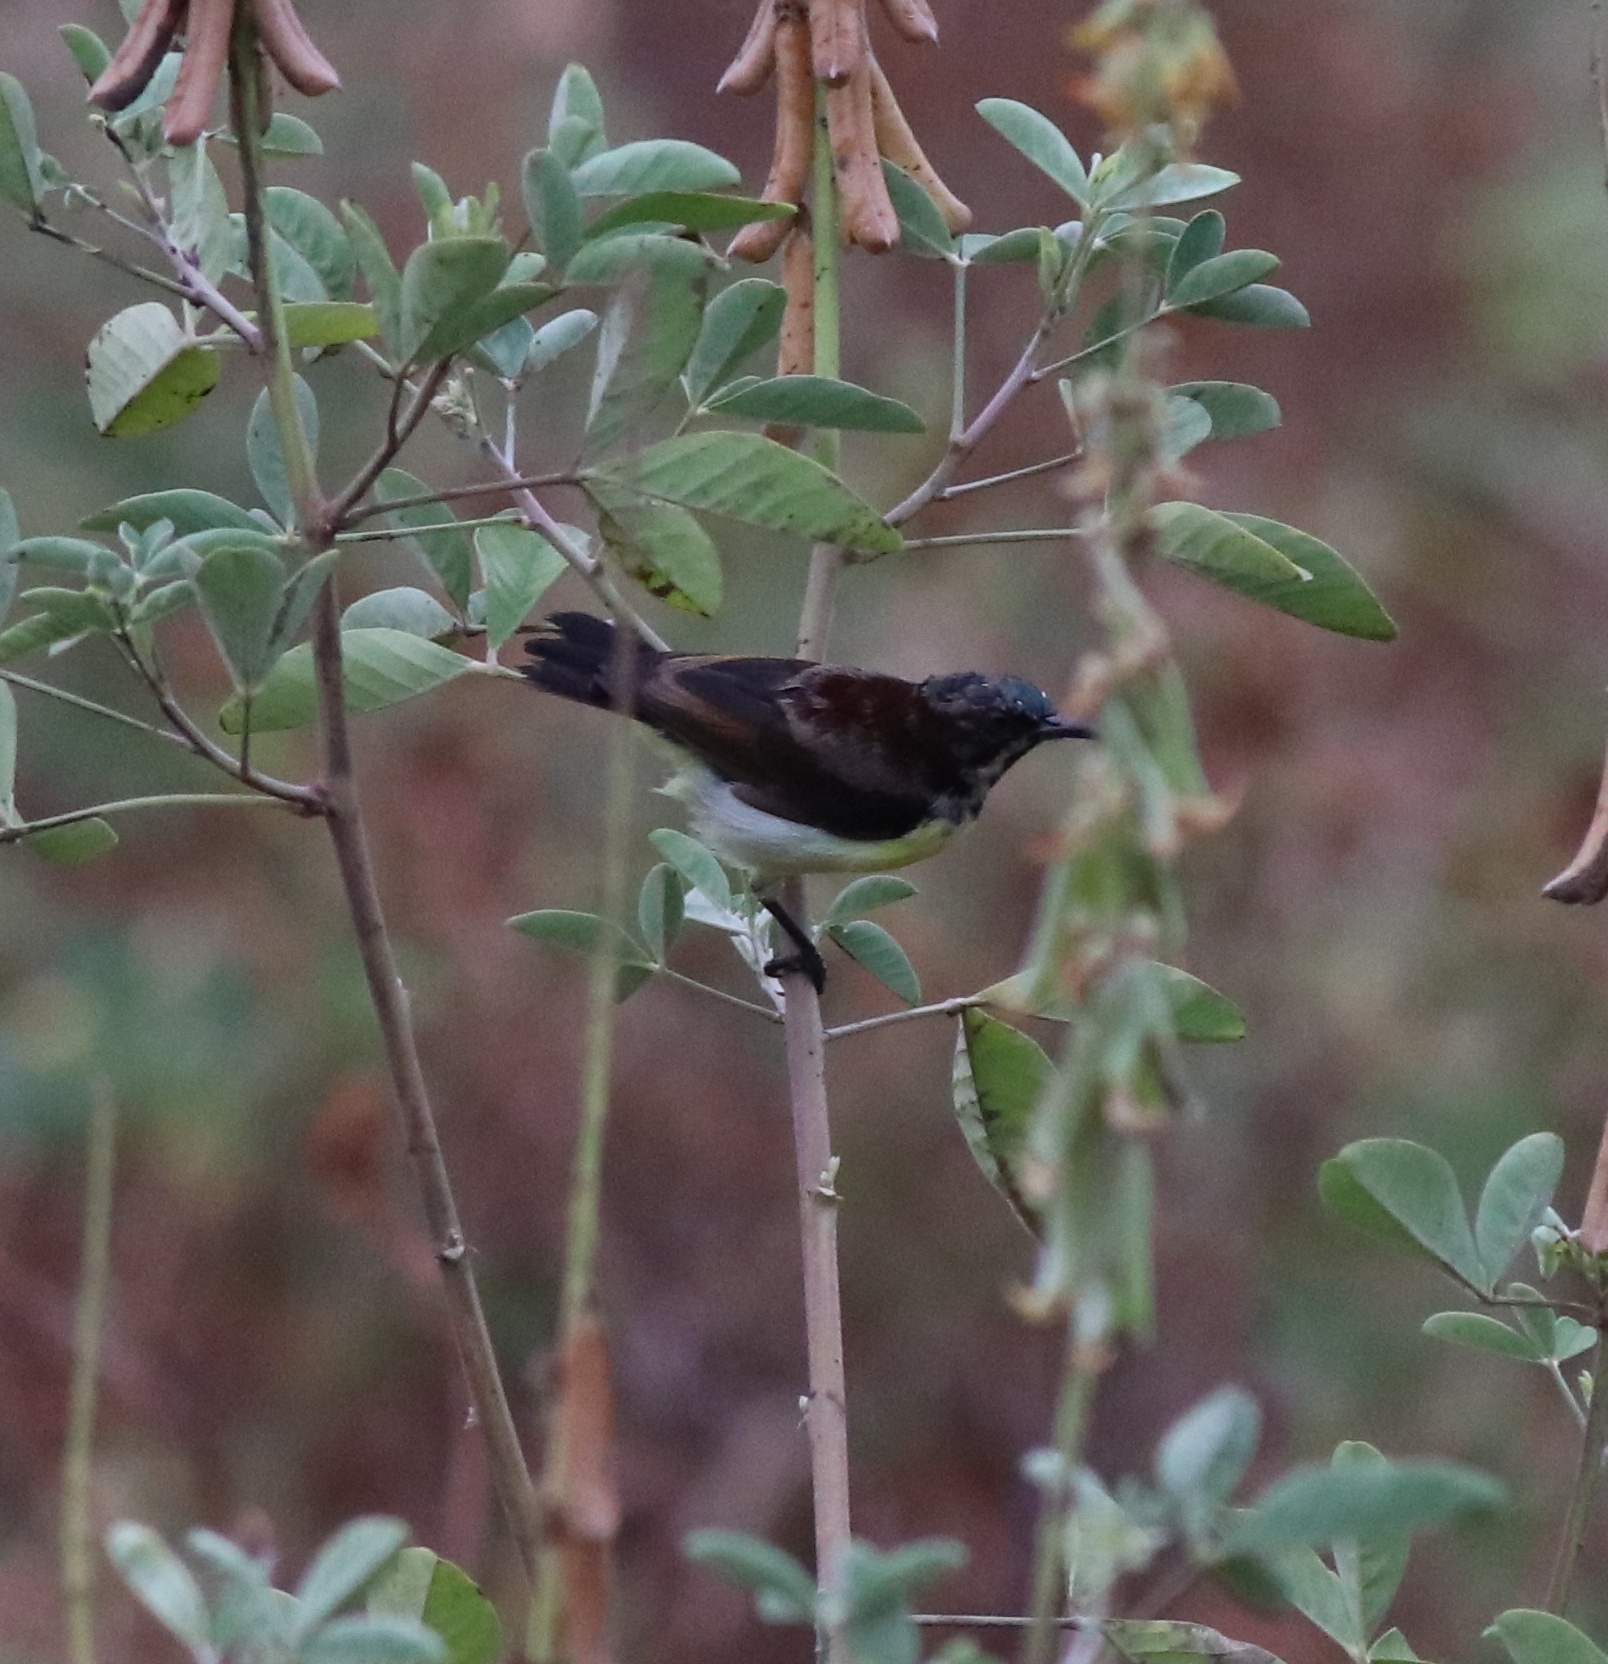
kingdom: Animalia
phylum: Chordata
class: Aves
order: Passeriformes
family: Nectariniidae
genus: Leptocoma
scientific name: Leptocoma zeylonica
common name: Purple-rumped sunbird
